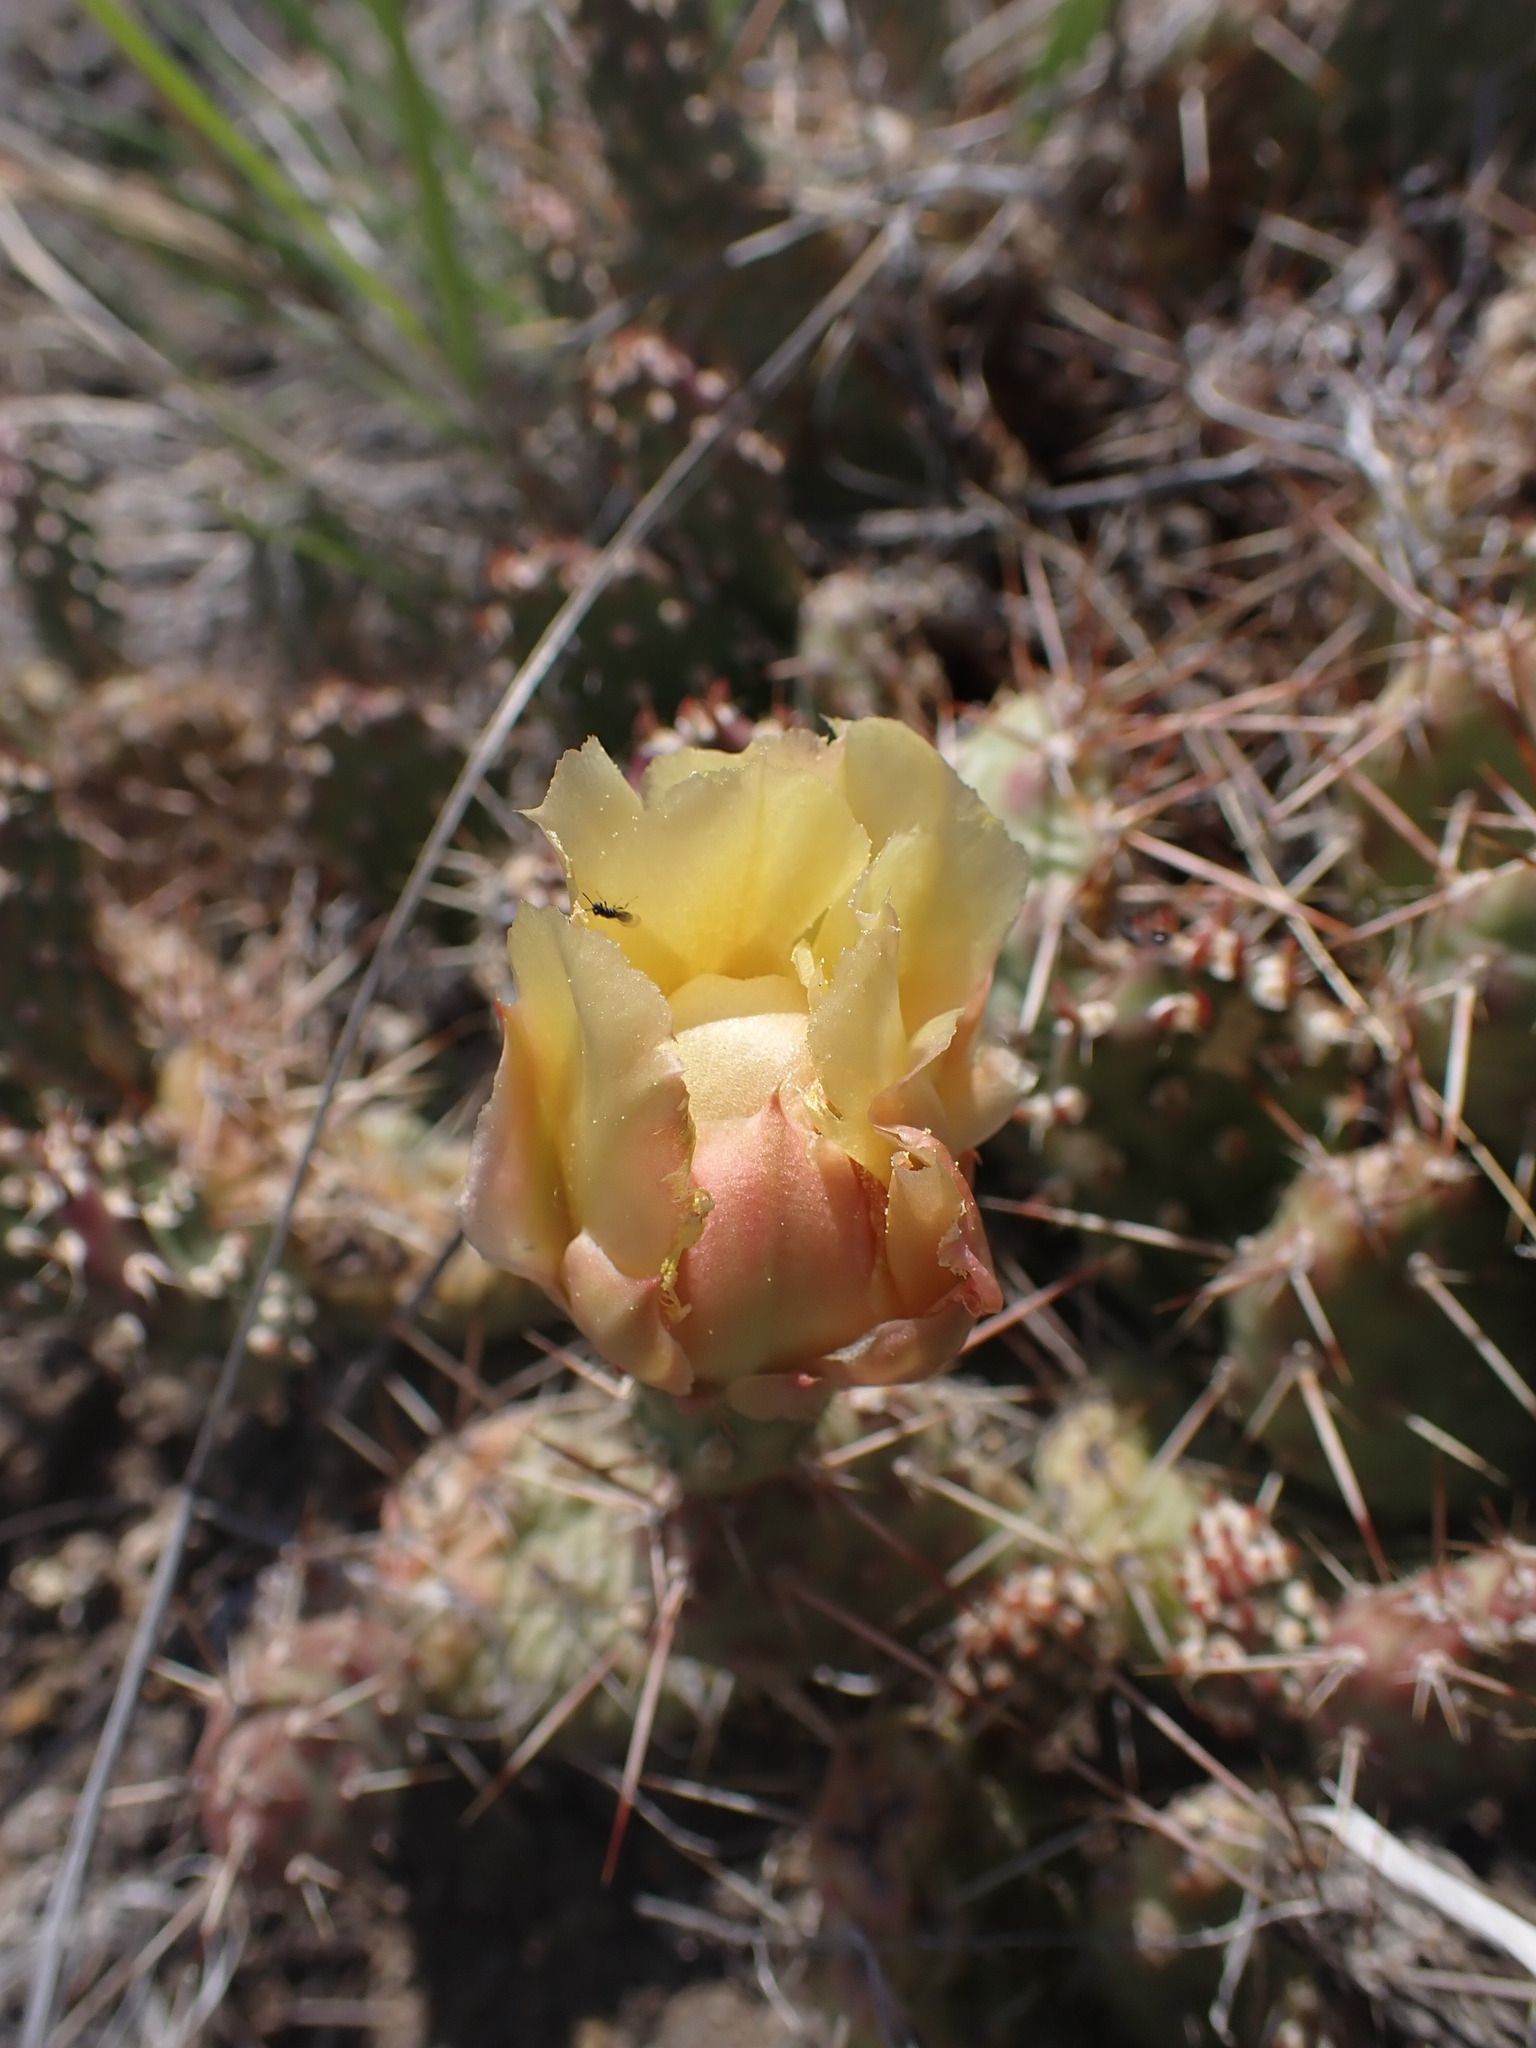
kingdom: Plantae
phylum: Tracheophyta
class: Magnoliopsida
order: Caryophyllales
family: Cactaceae
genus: Opuntia
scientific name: Opuntia fragilis
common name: Brittle cactus
